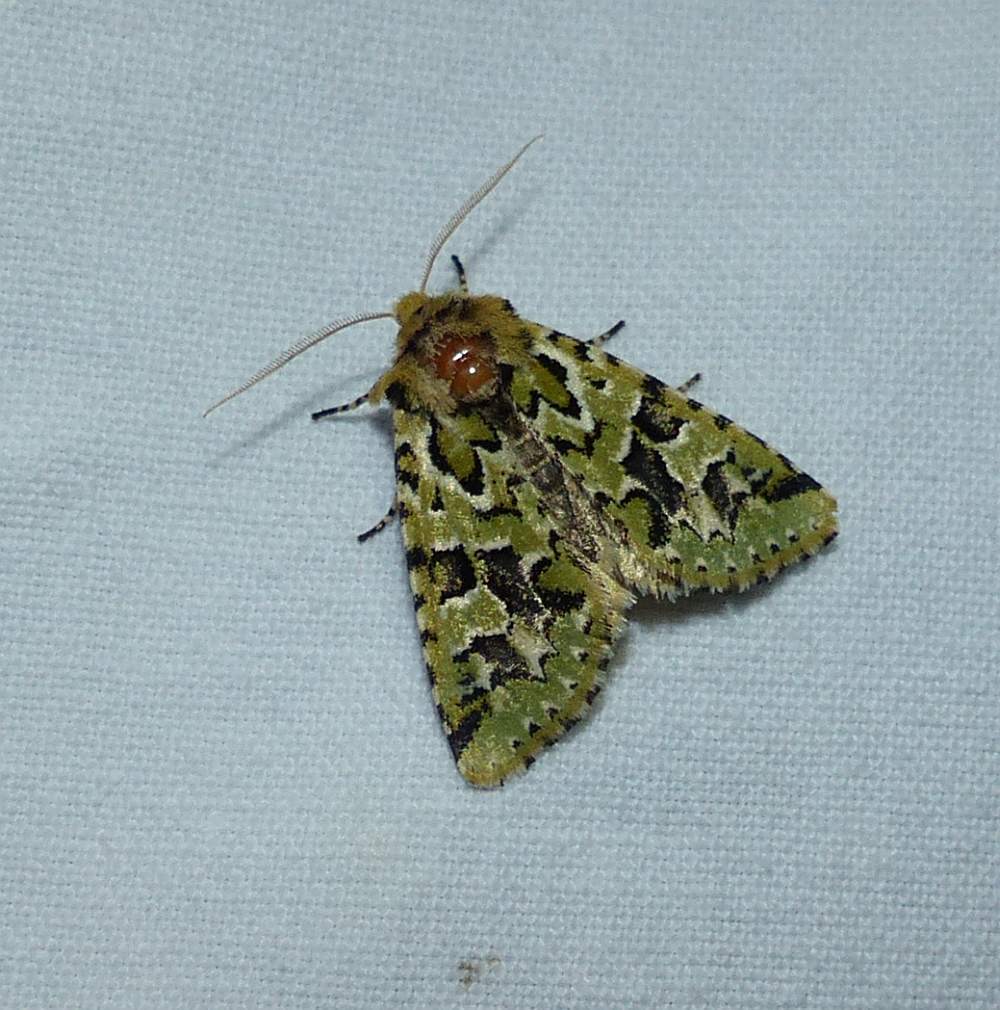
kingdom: Animalia
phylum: Arthropoda
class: Insecta
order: Lepidoptera
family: Noctuidae
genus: Feralia
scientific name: Feralia comstocki
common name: Comstock's sallow
